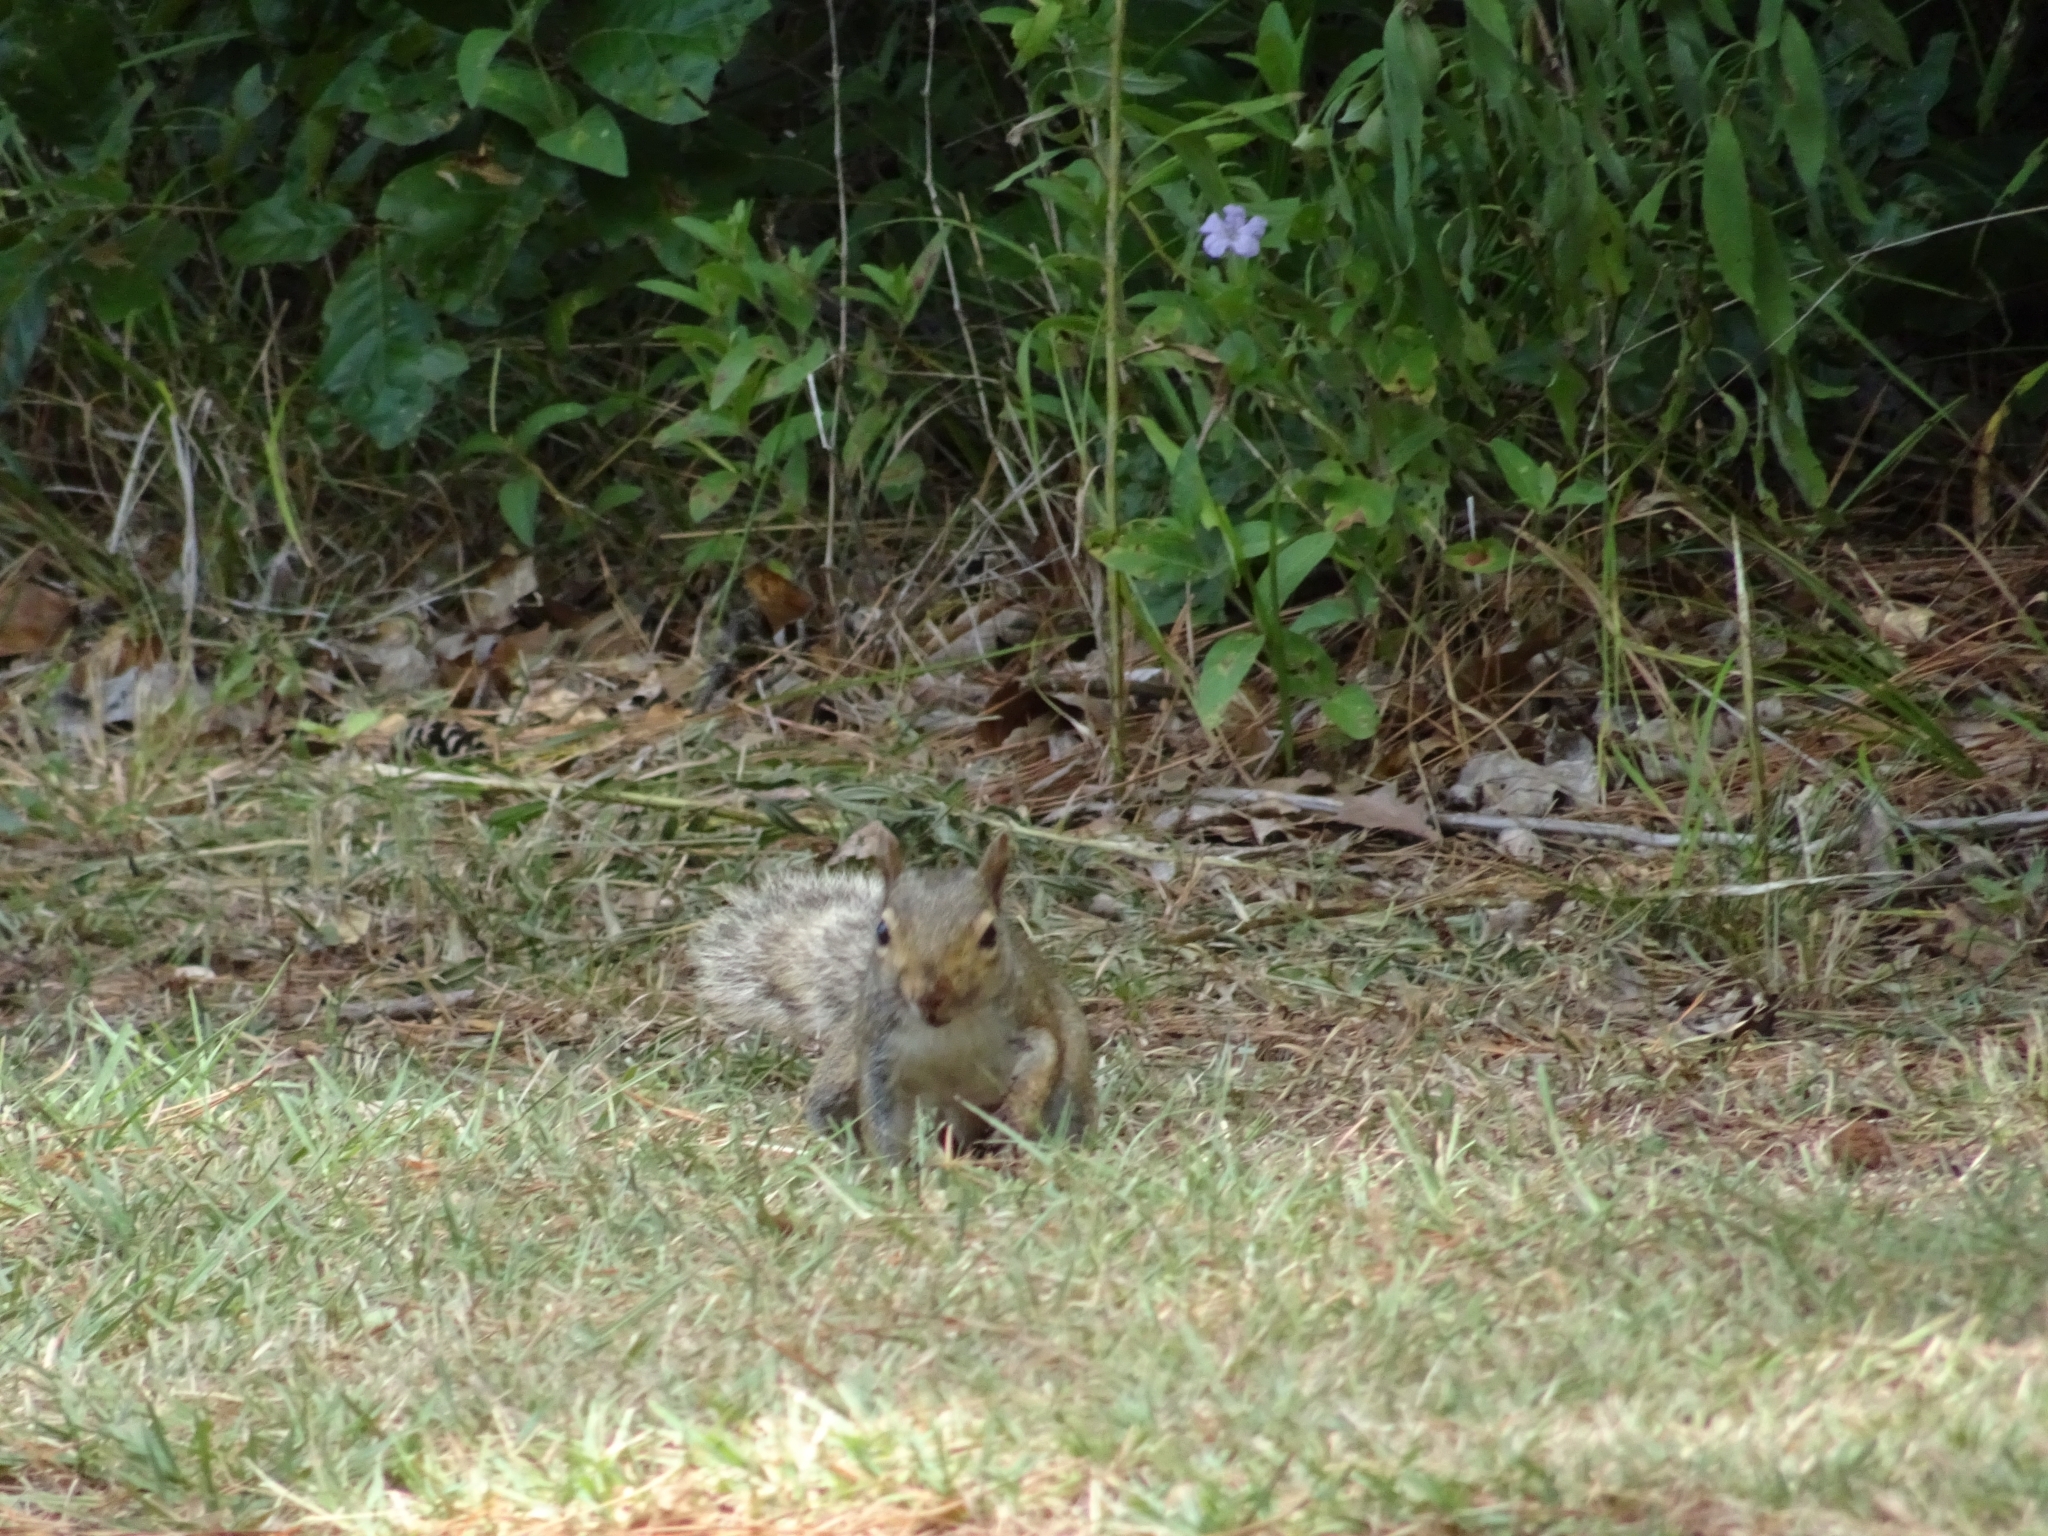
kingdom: Animalia
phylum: Chordata
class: Mammalia
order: Rodentia
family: Sciuridae
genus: Sciurus
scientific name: Sciurus carolinensis
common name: Eastern gray squirrel
